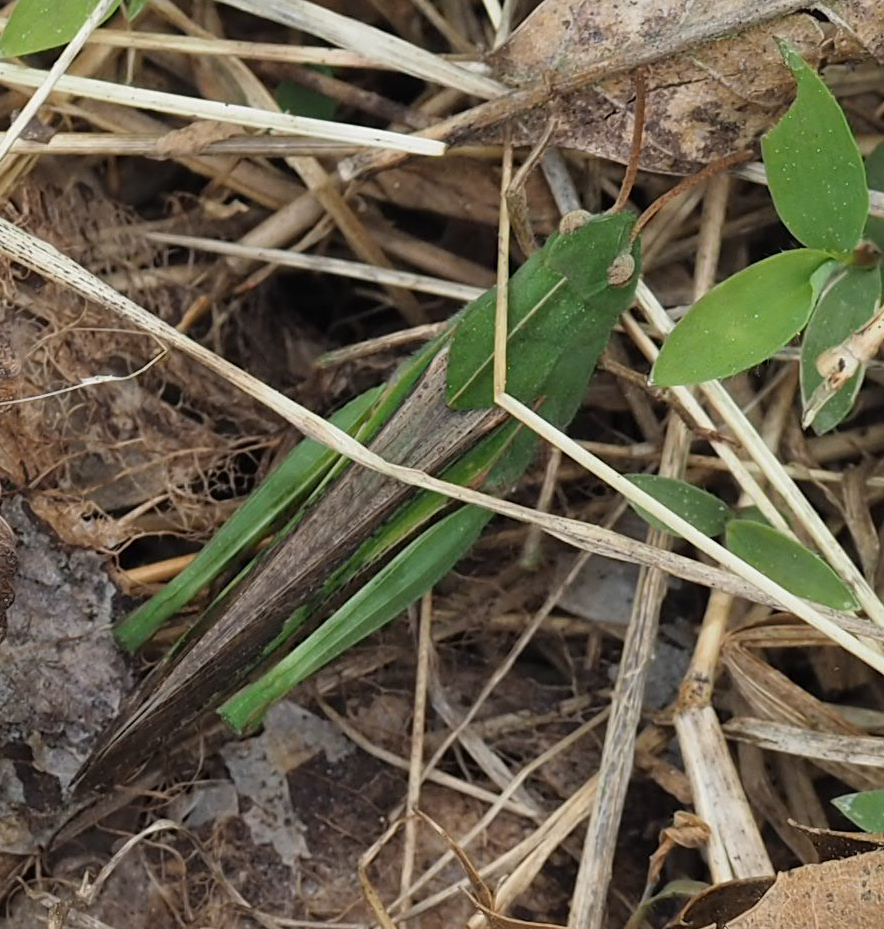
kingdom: Animalia
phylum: Arthropoda
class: Insecta
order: Orthoptera
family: Acrididae
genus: Chortophaga
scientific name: Chortophaga viridifasciata
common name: Green-striped grasshopper
